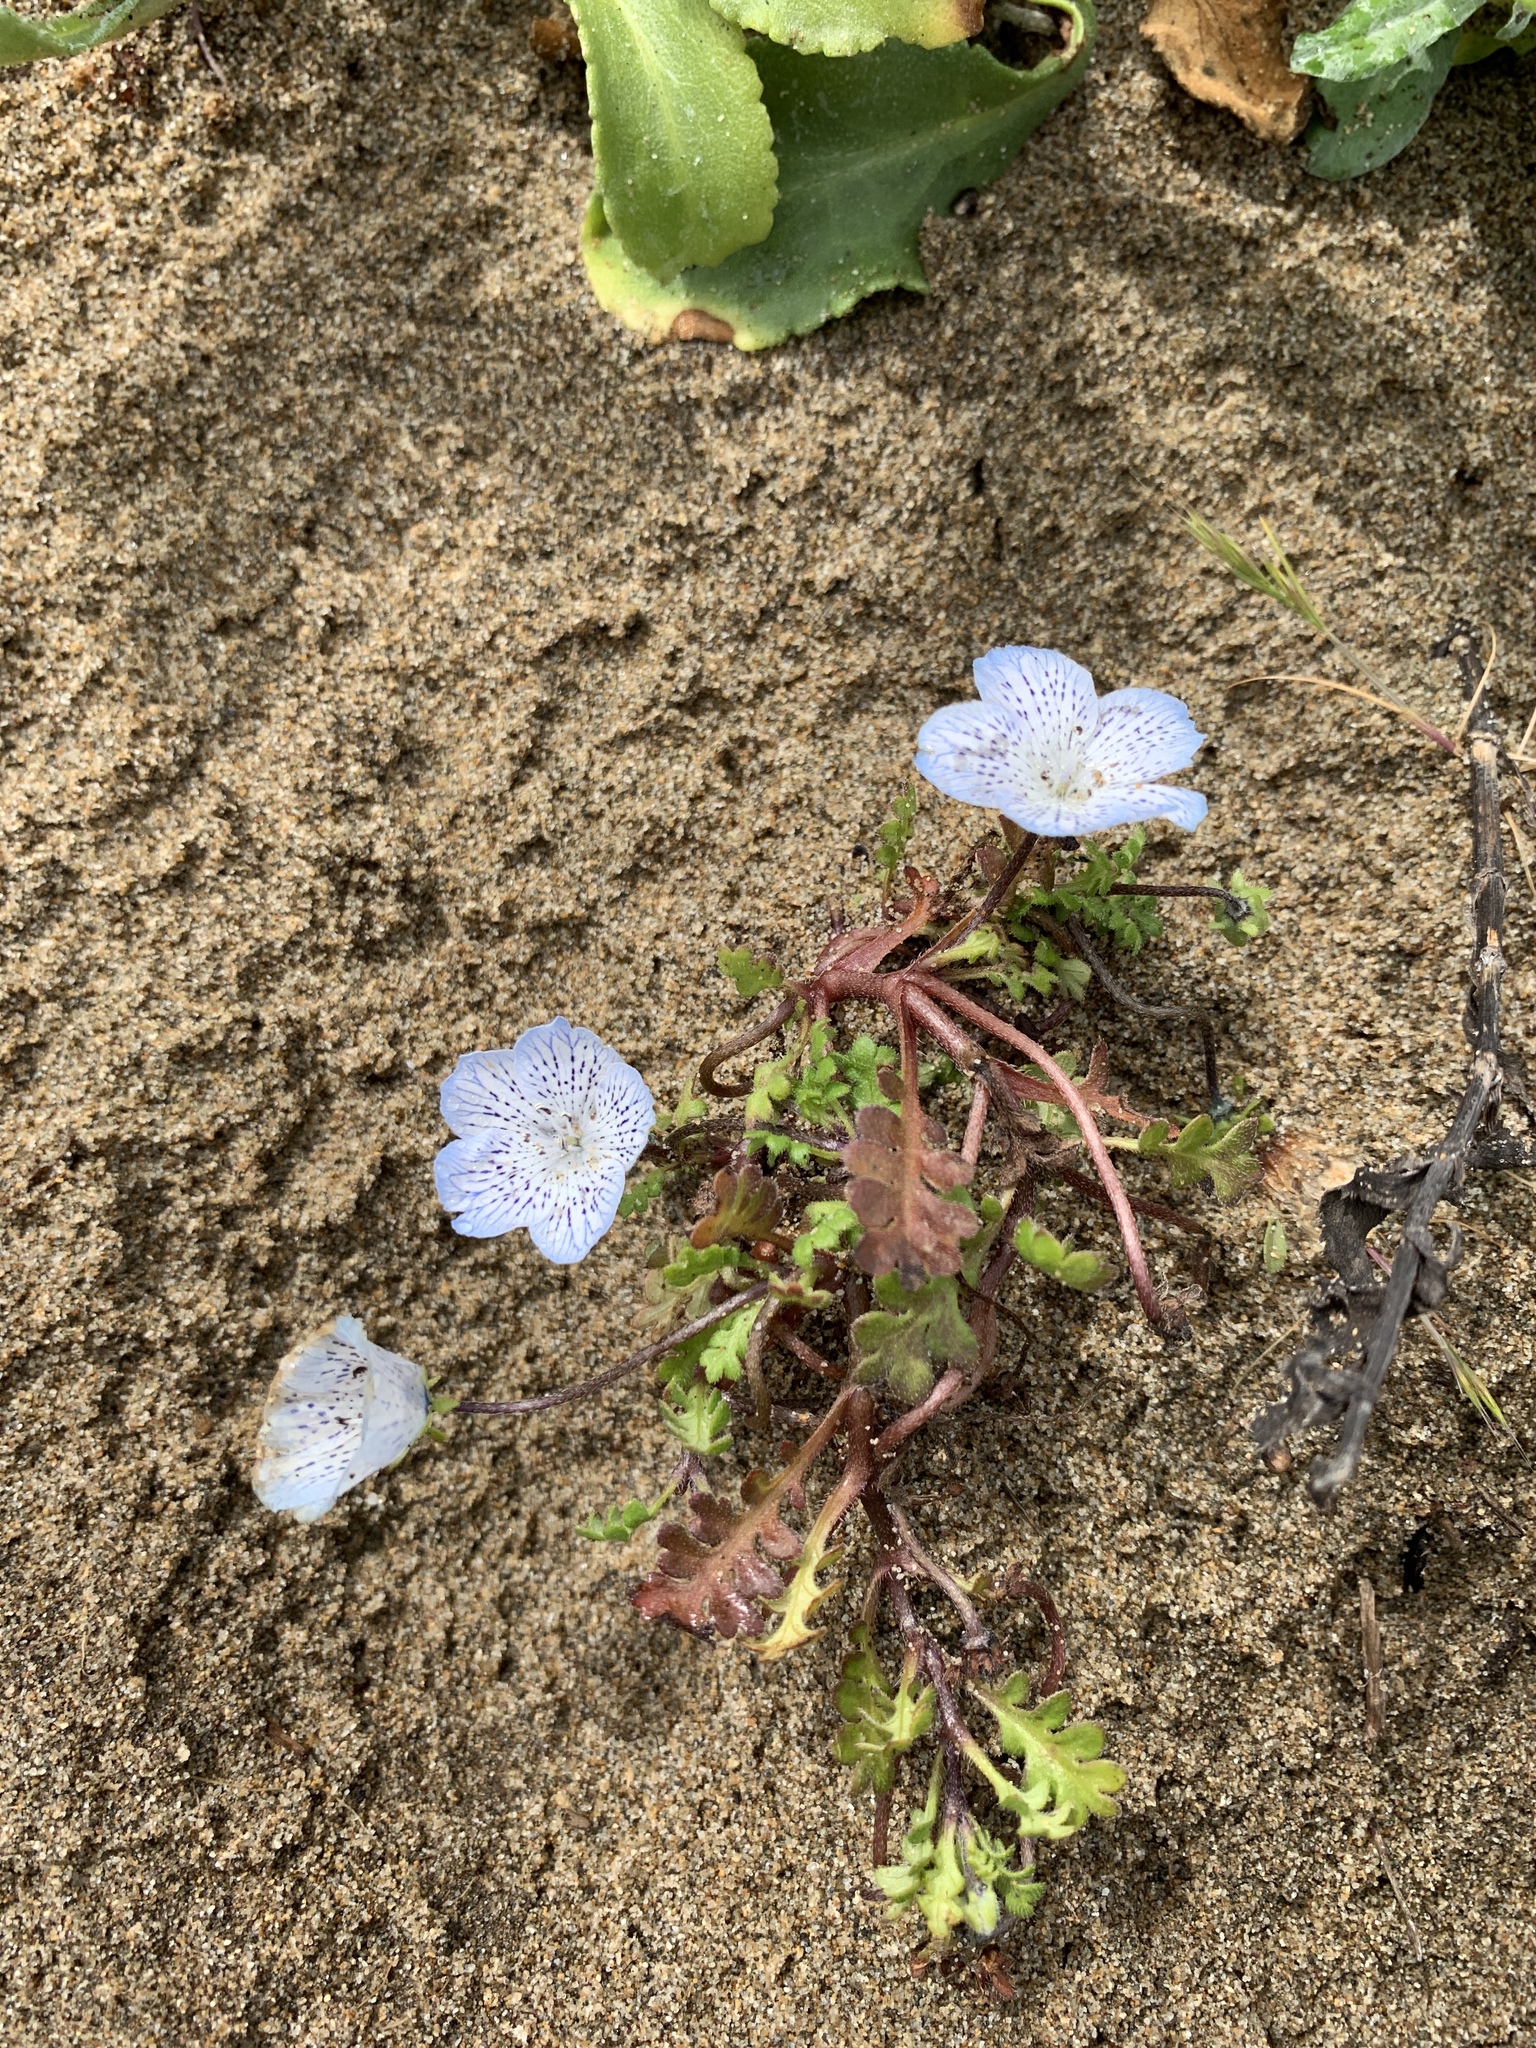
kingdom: Plantae
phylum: Tracheophyta
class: Magnoliopsida
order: Boraginales
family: Hydrophyllaceae
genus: Nemophila
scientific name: Nemophila menziesii
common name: Baby's-blue-eyes
